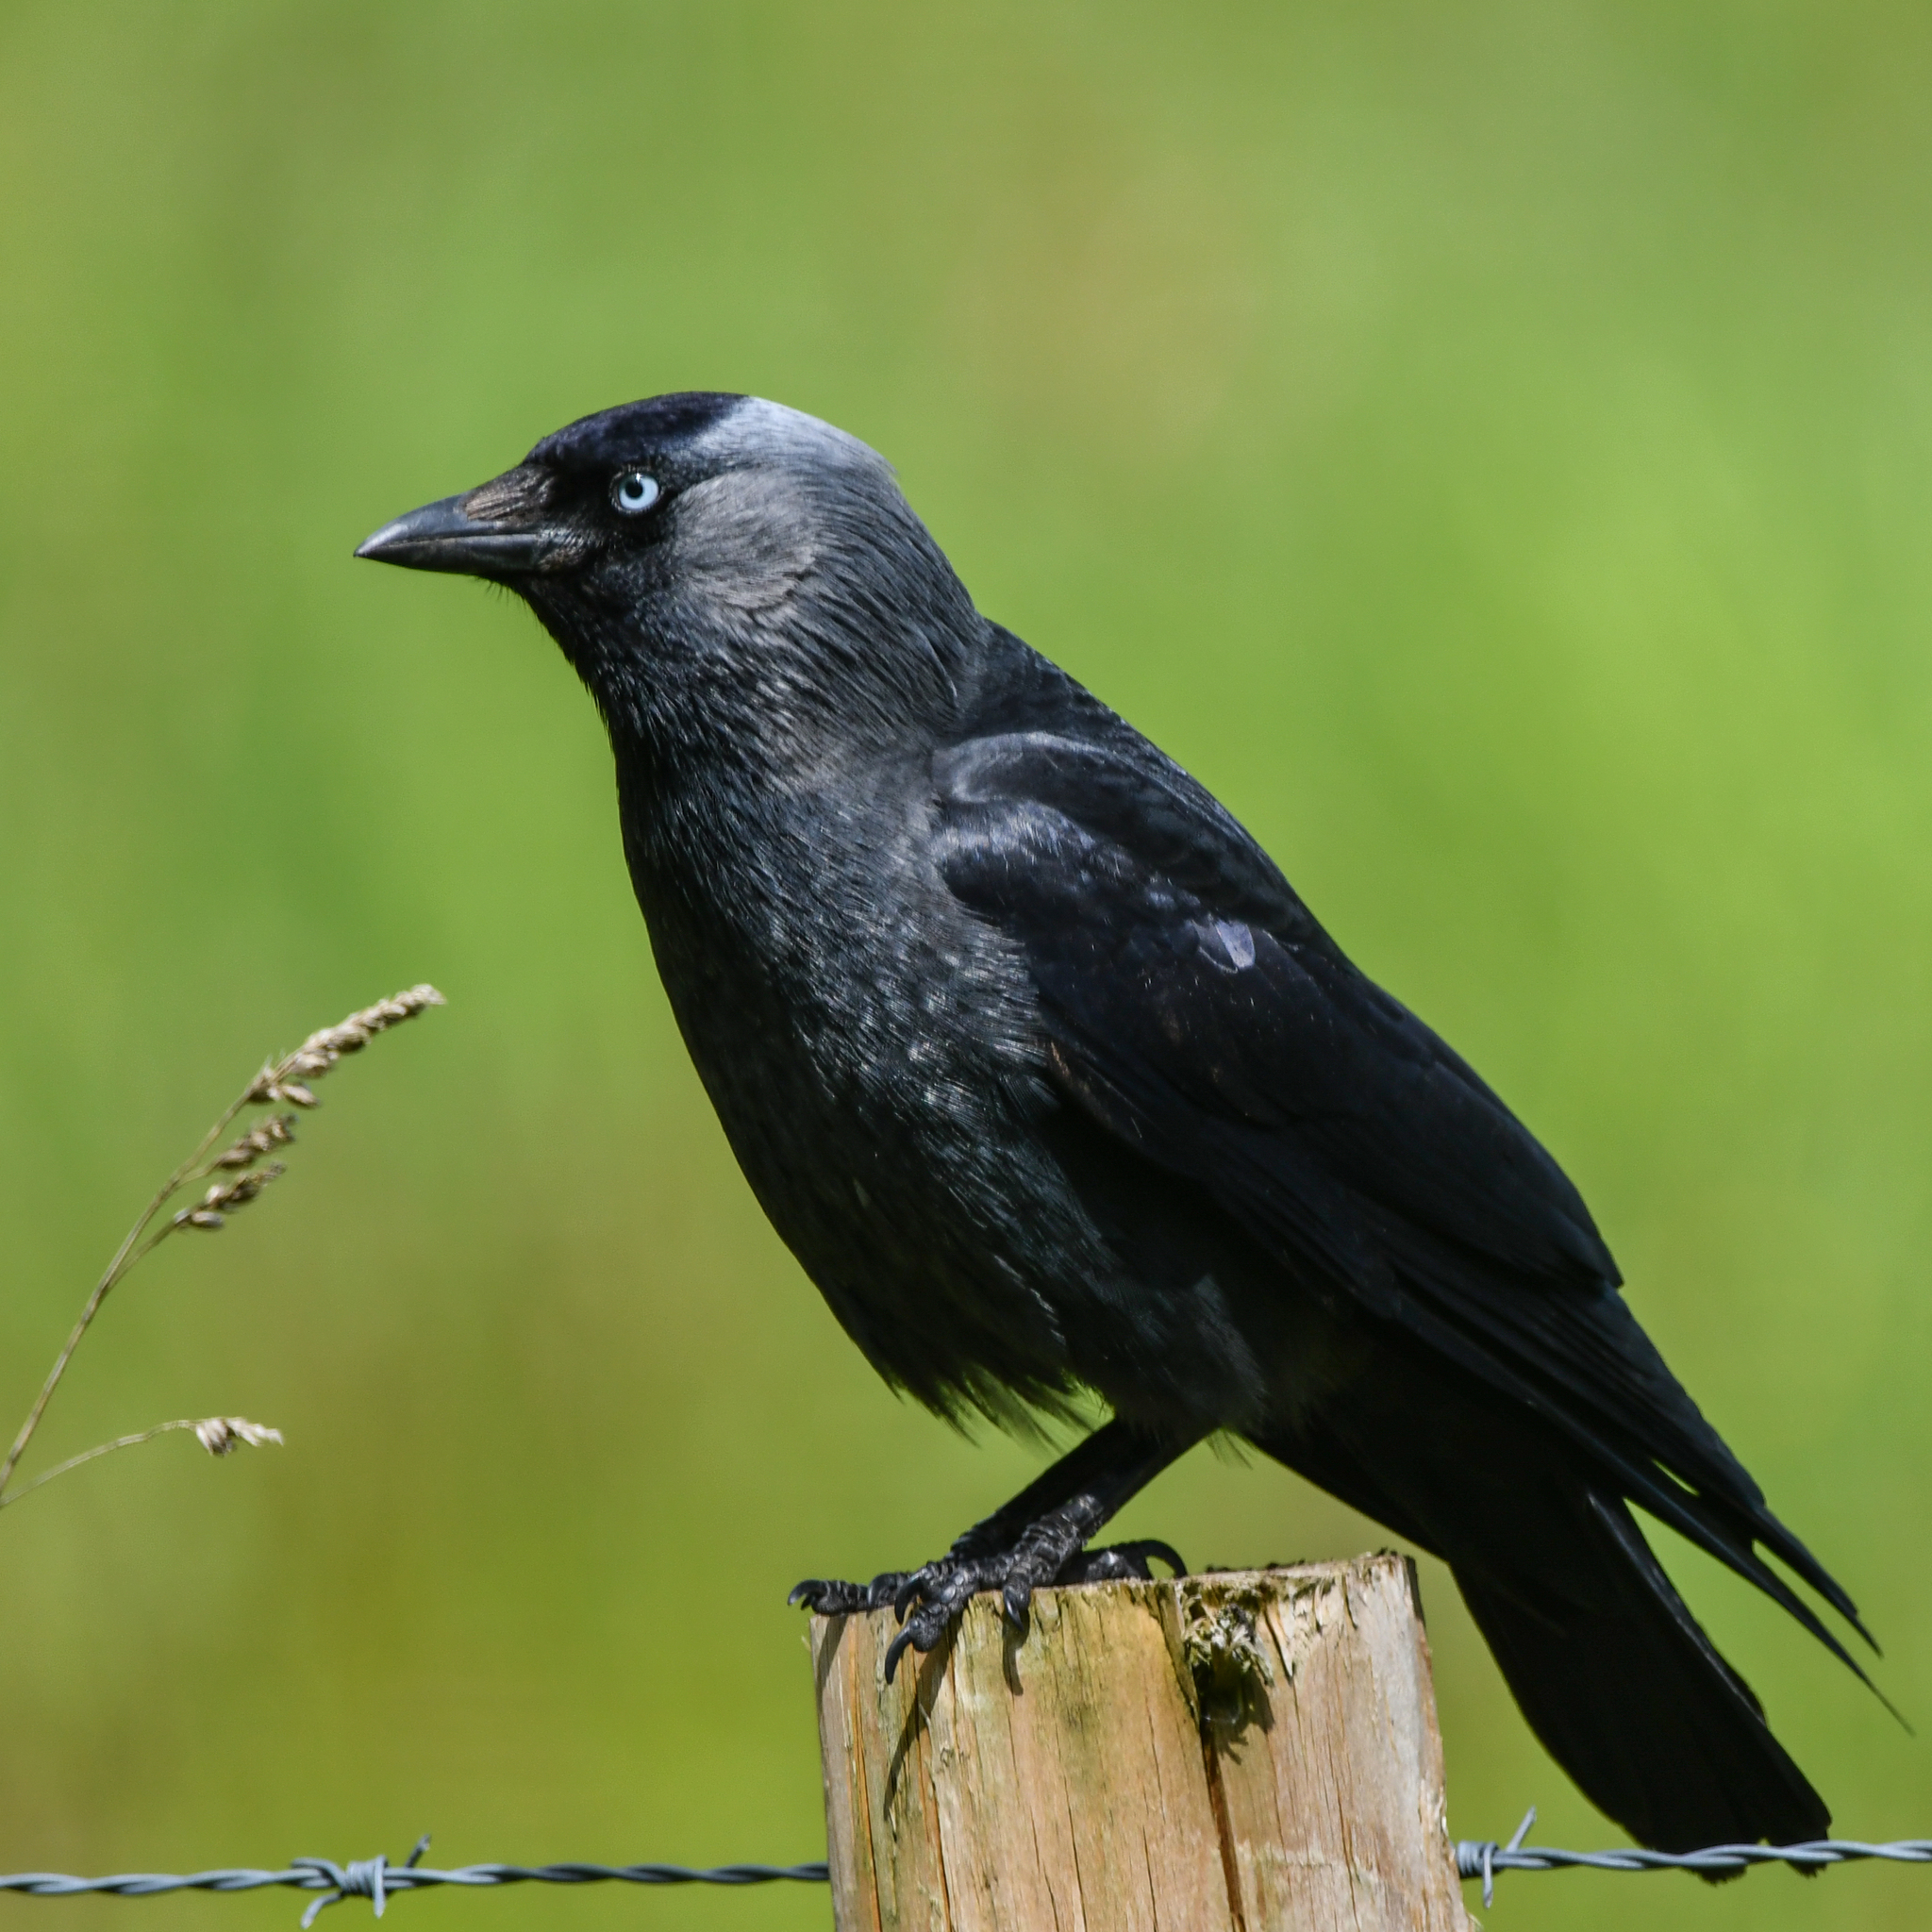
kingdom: Animalia
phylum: Chordata
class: Aves
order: Passeriformes
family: Corvidae
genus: Coloeus
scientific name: Coloeus monedula
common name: Western jackdaw
